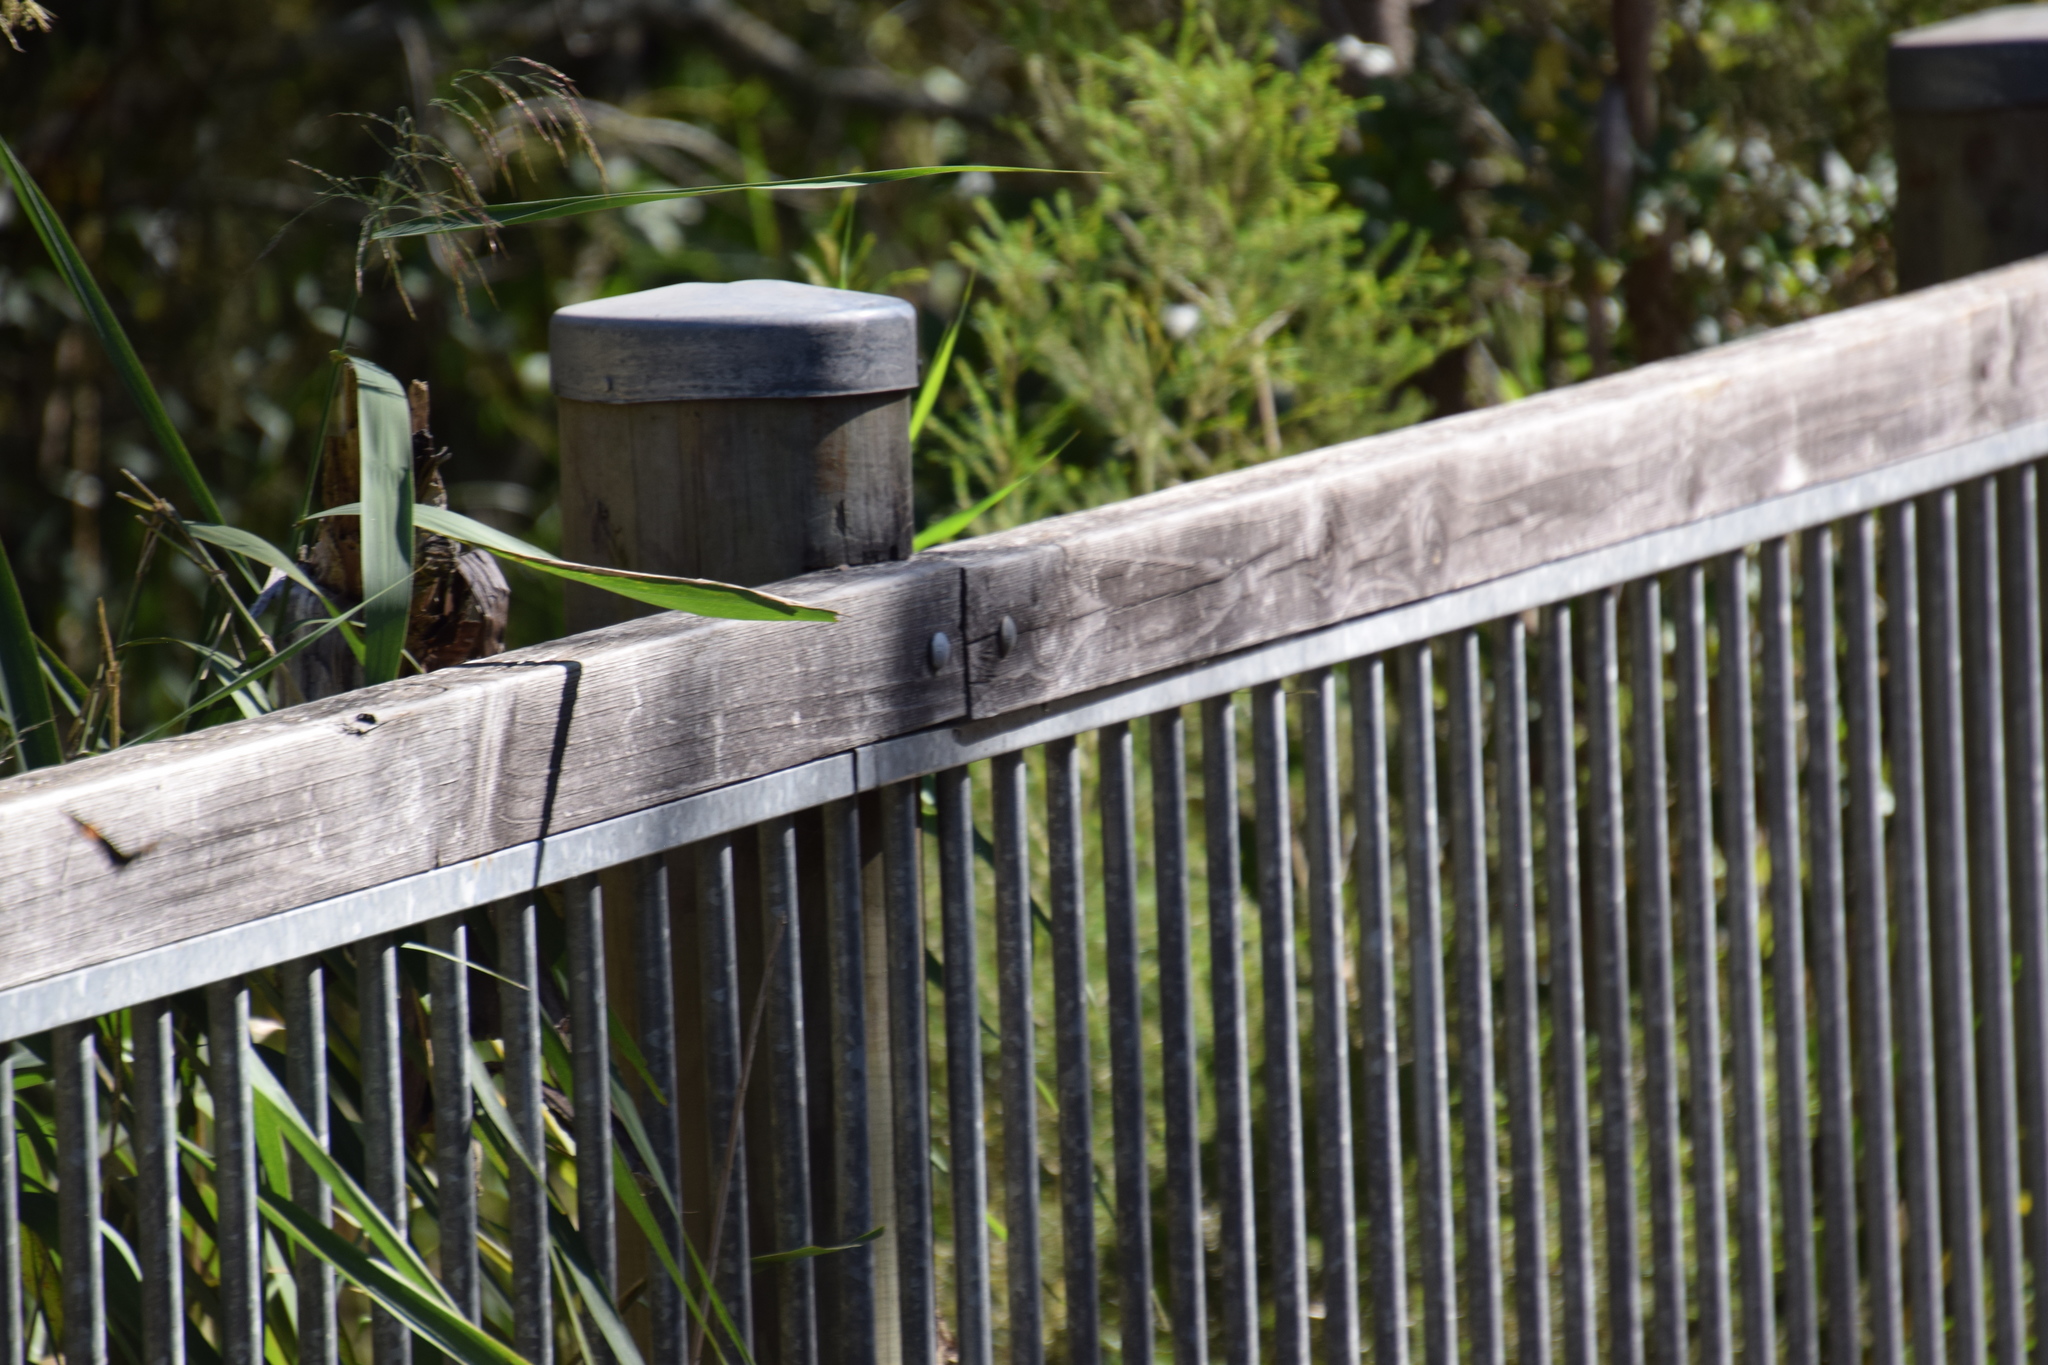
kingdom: Animalia
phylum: Arthropoda
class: Insecta
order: Lepidoptera
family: Nymphalidae
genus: Tisiphone
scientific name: Tisiphone abeona
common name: Swordgrass brown
